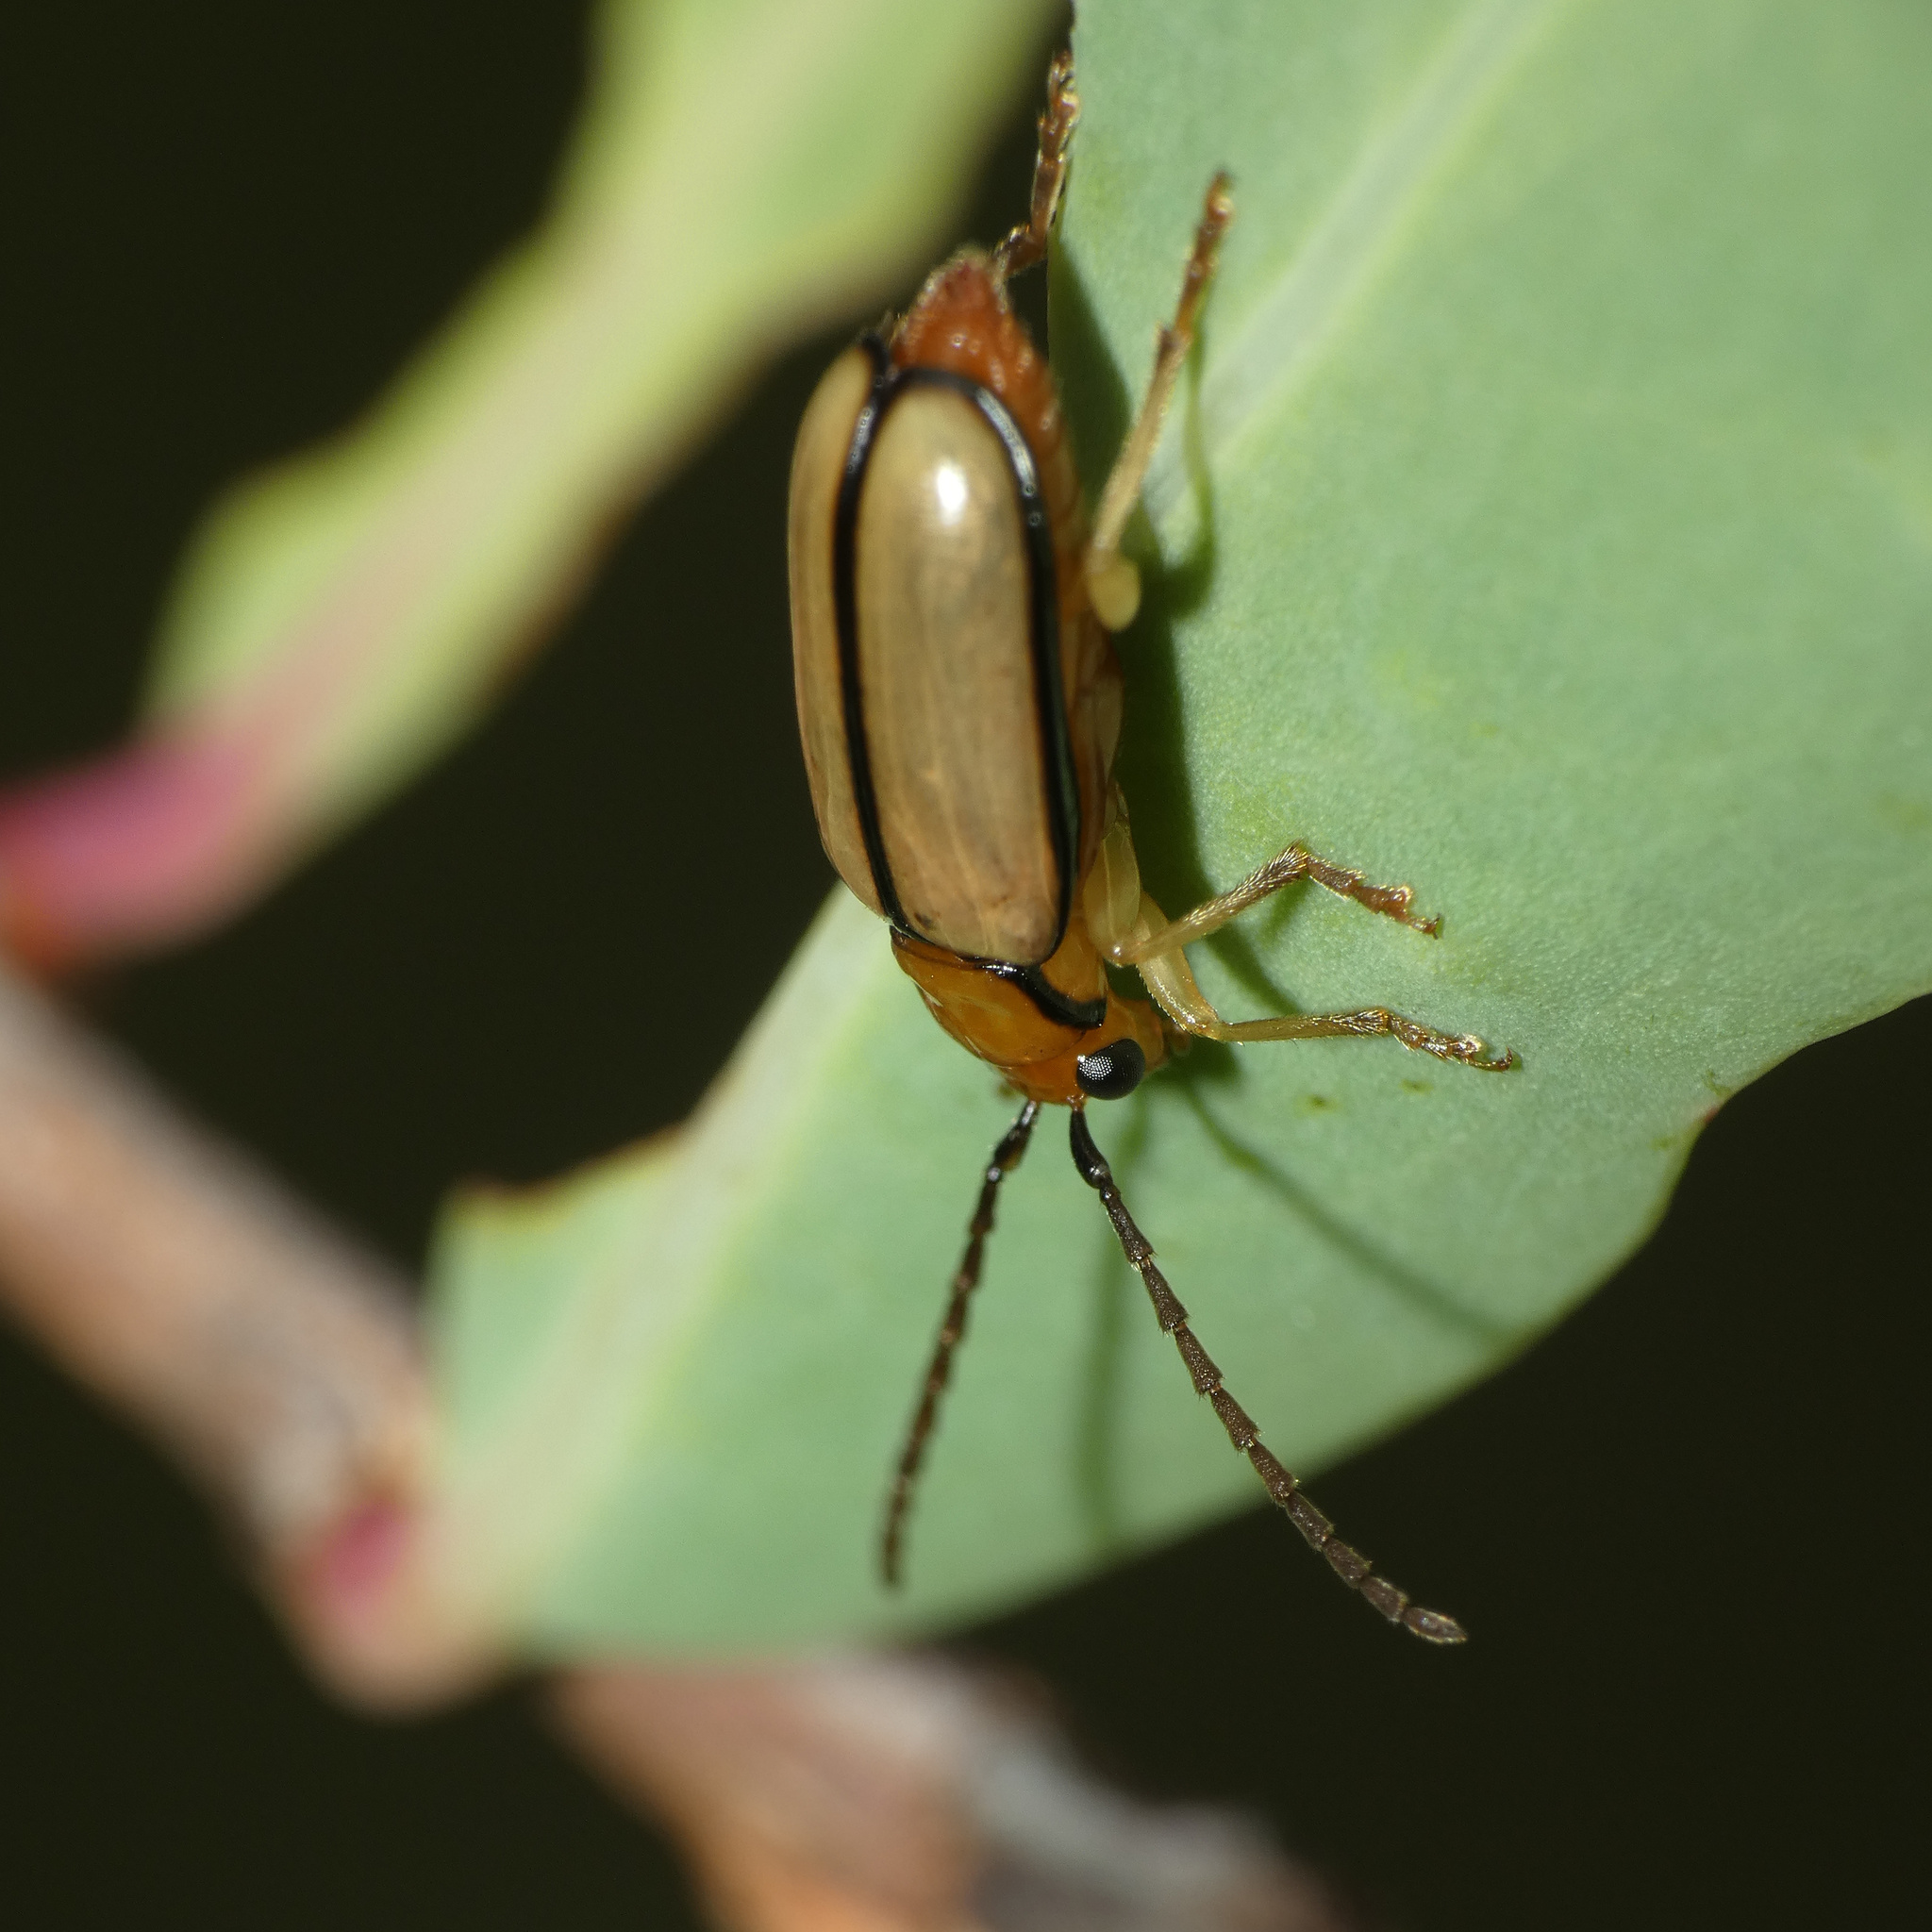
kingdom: Animalia
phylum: Arthropoda
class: Insecta
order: Coleoptera
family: Chrysomelidae
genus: Palpoxena
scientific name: Palpoxena
